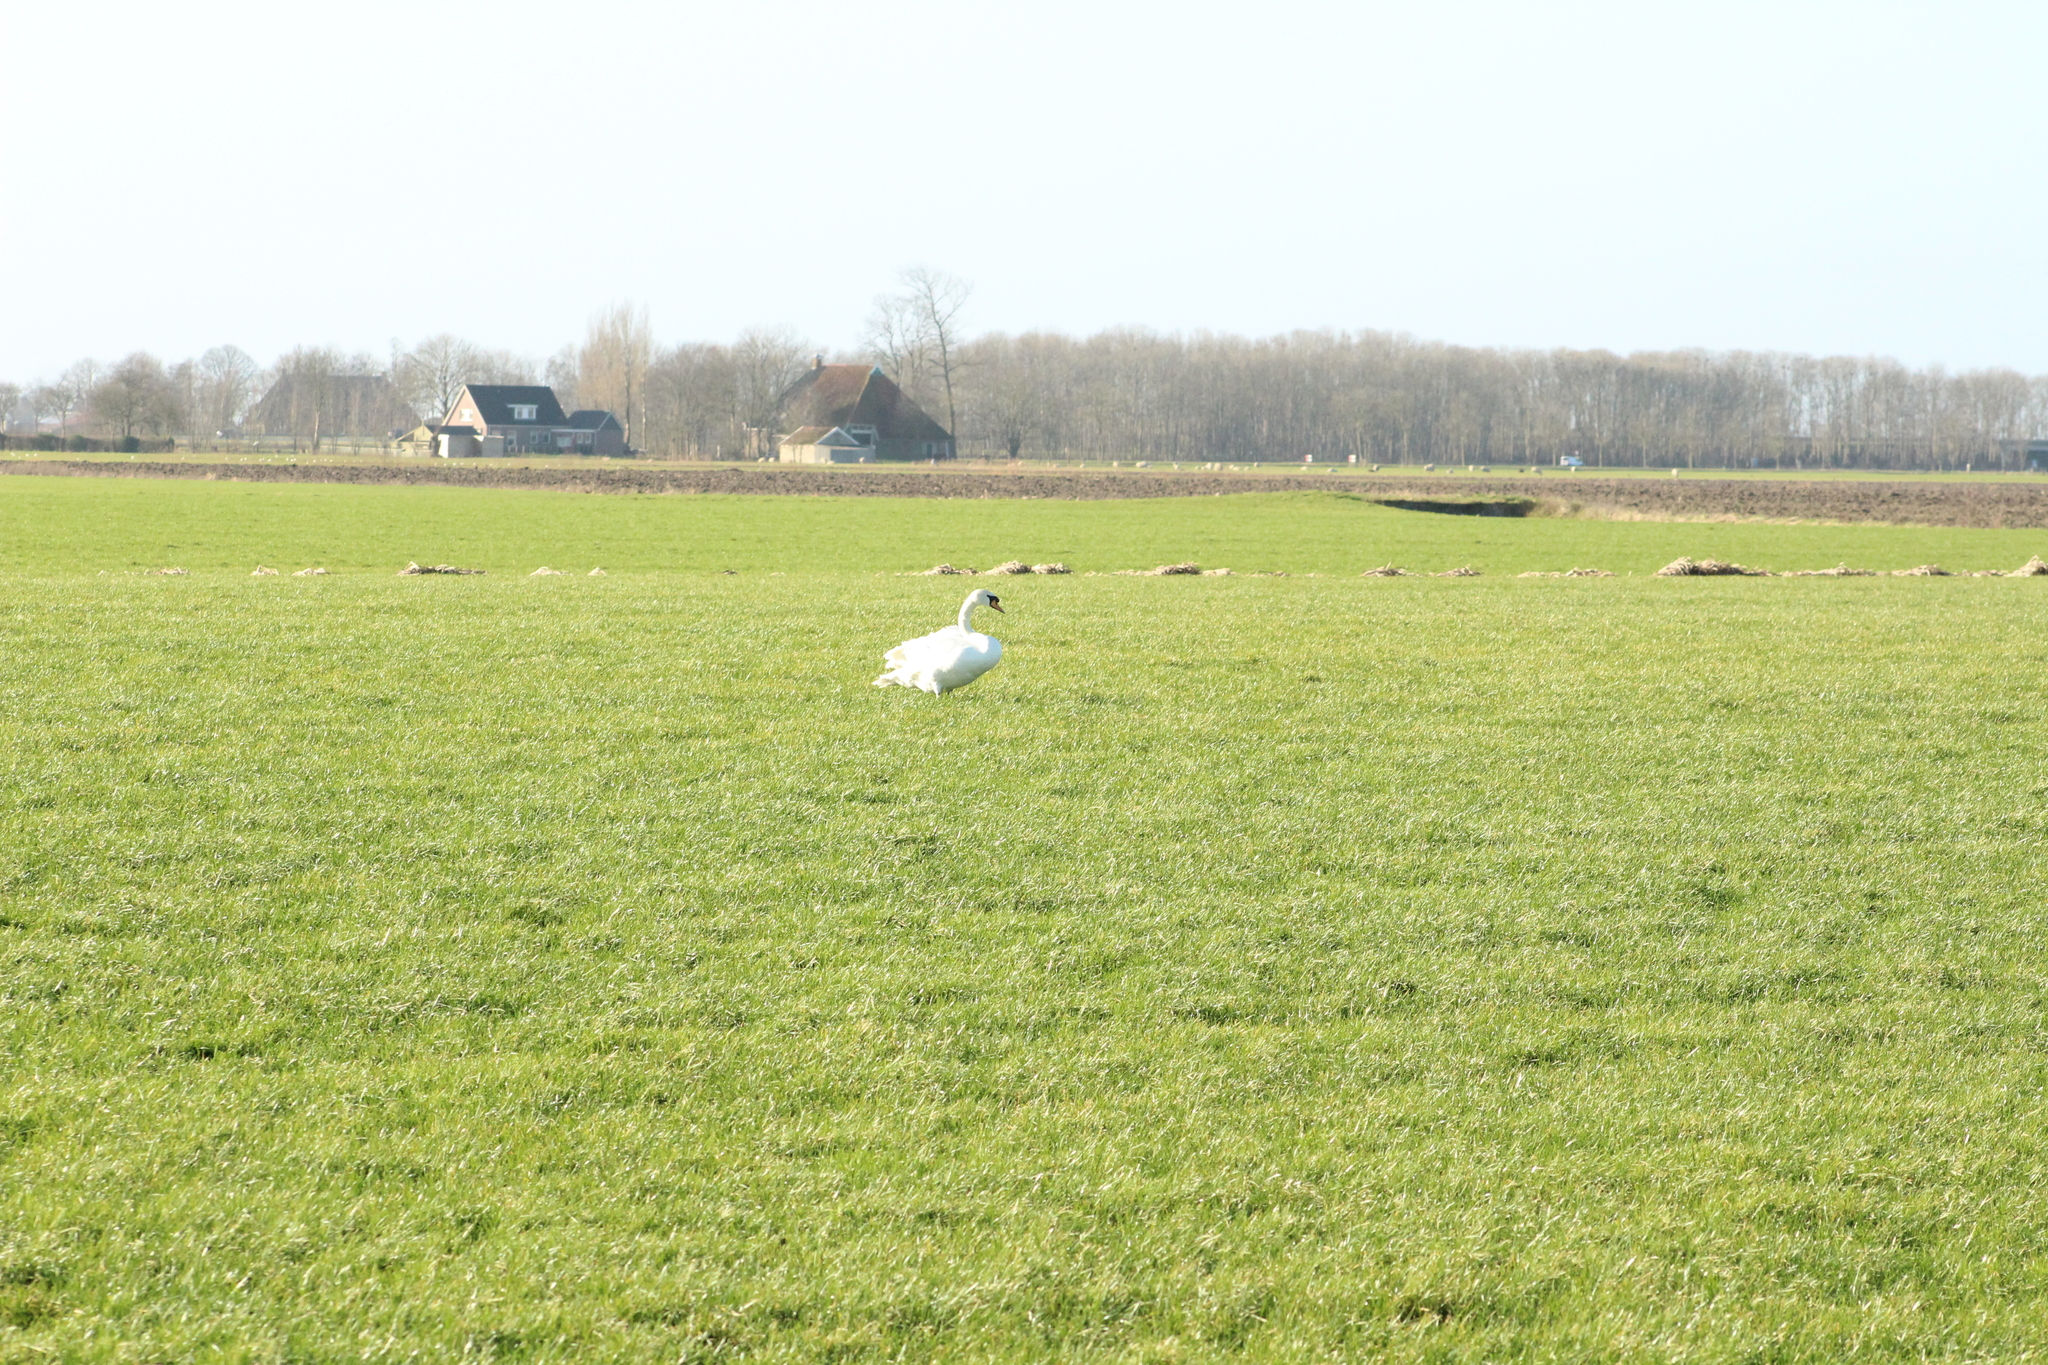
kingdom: Animalia
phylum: Chordata
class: Aves
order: Anseriformes
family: Anatidae
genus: Cygnus
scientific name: Cygnus olor
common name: Mute swan
